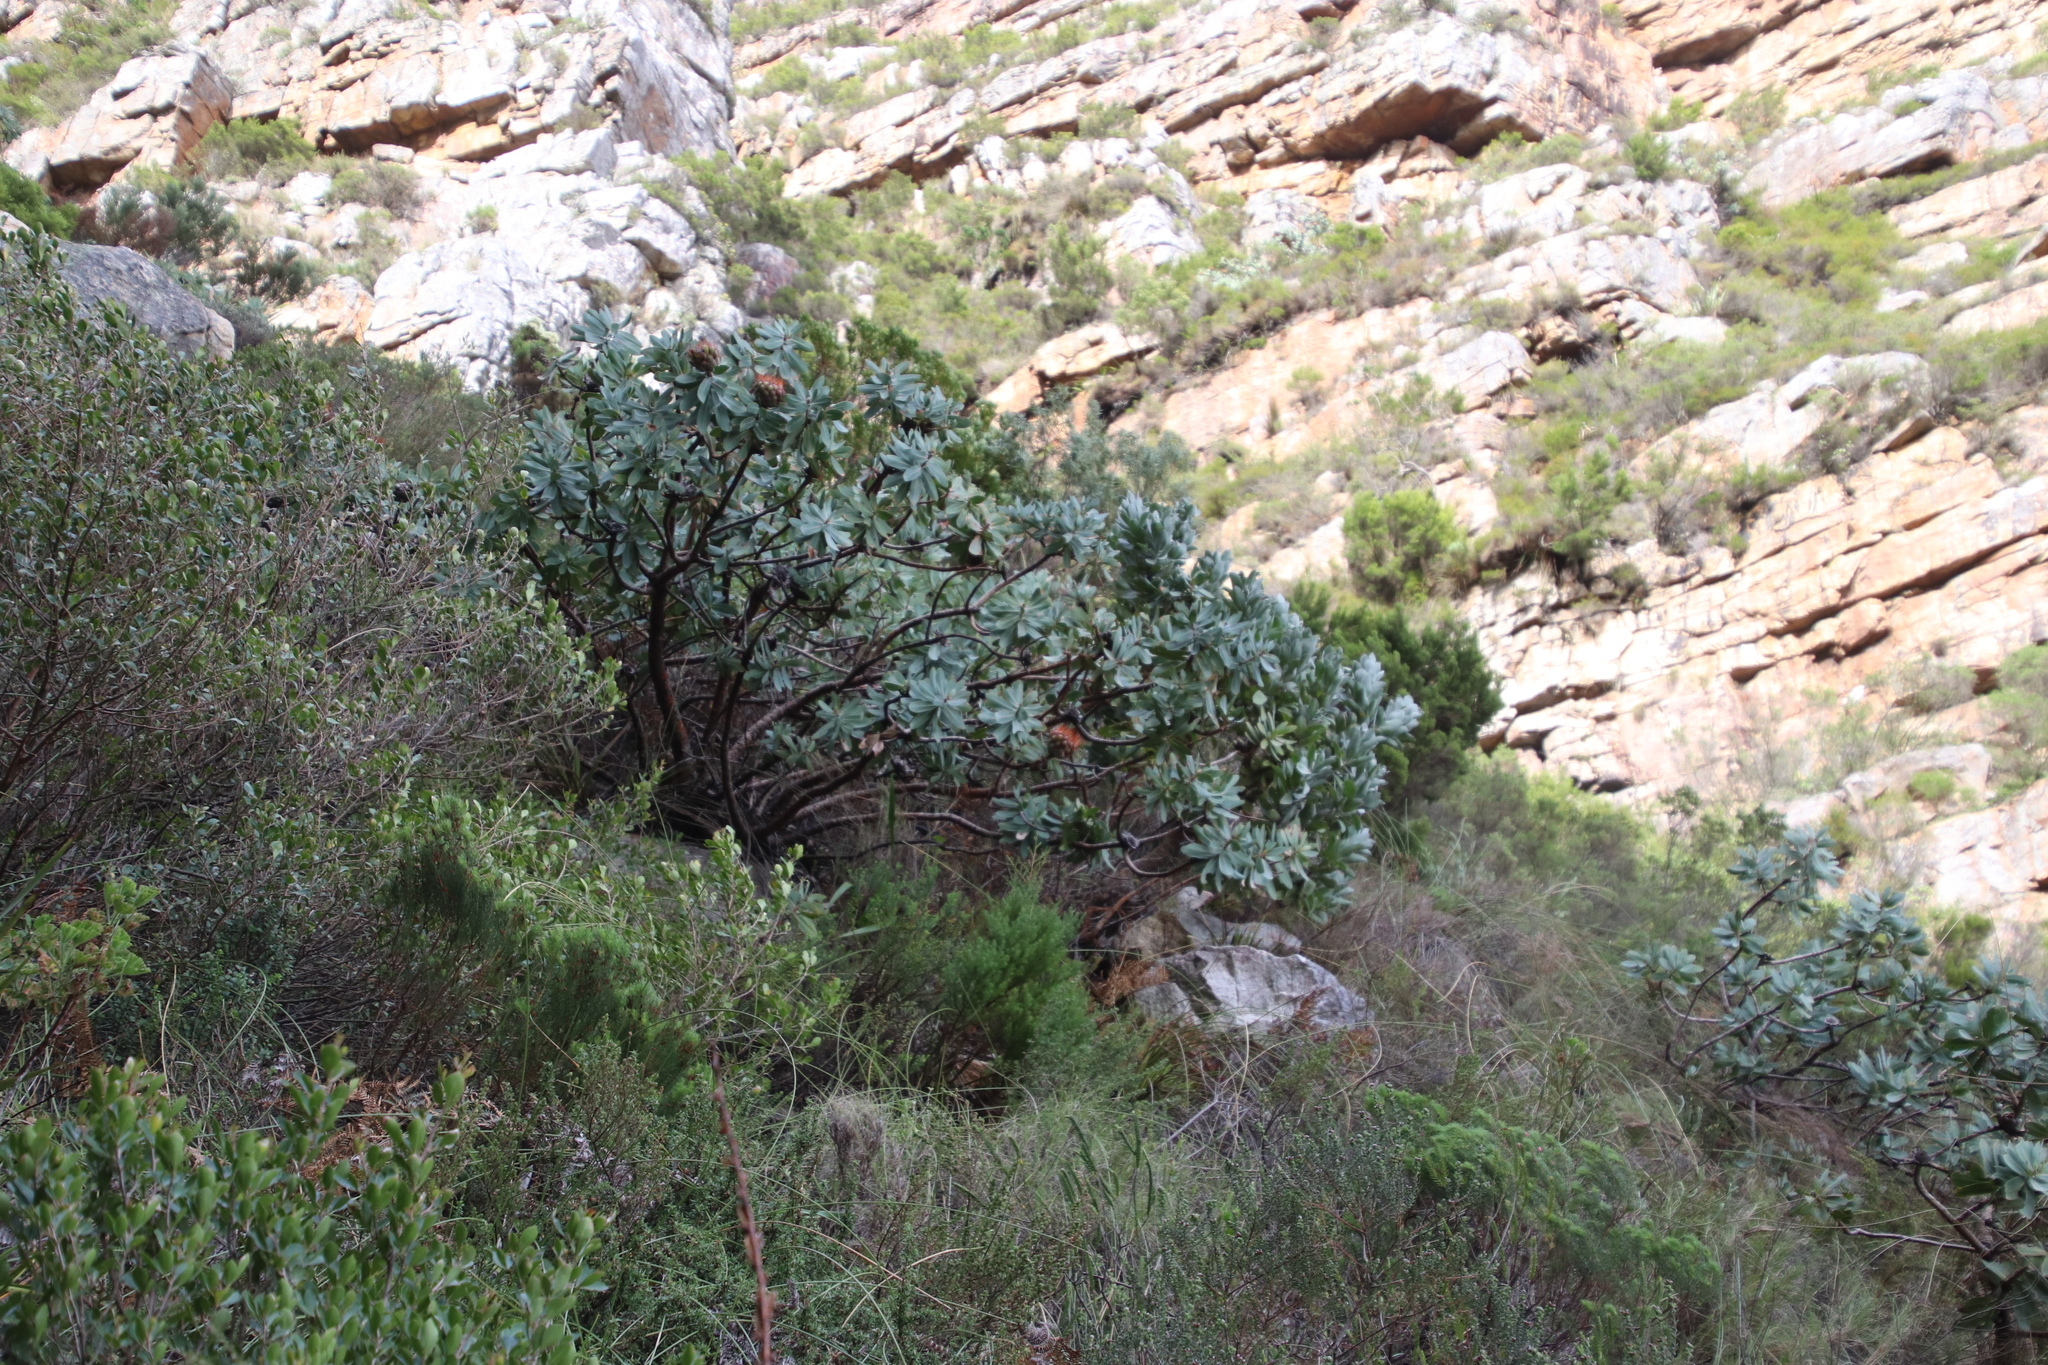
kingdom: Plantae
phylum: Tracheophyta
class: Magnoliopsida
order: Proteales
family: Proteaceae
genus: Protea
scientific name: Protea nitida
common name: Tree protea
